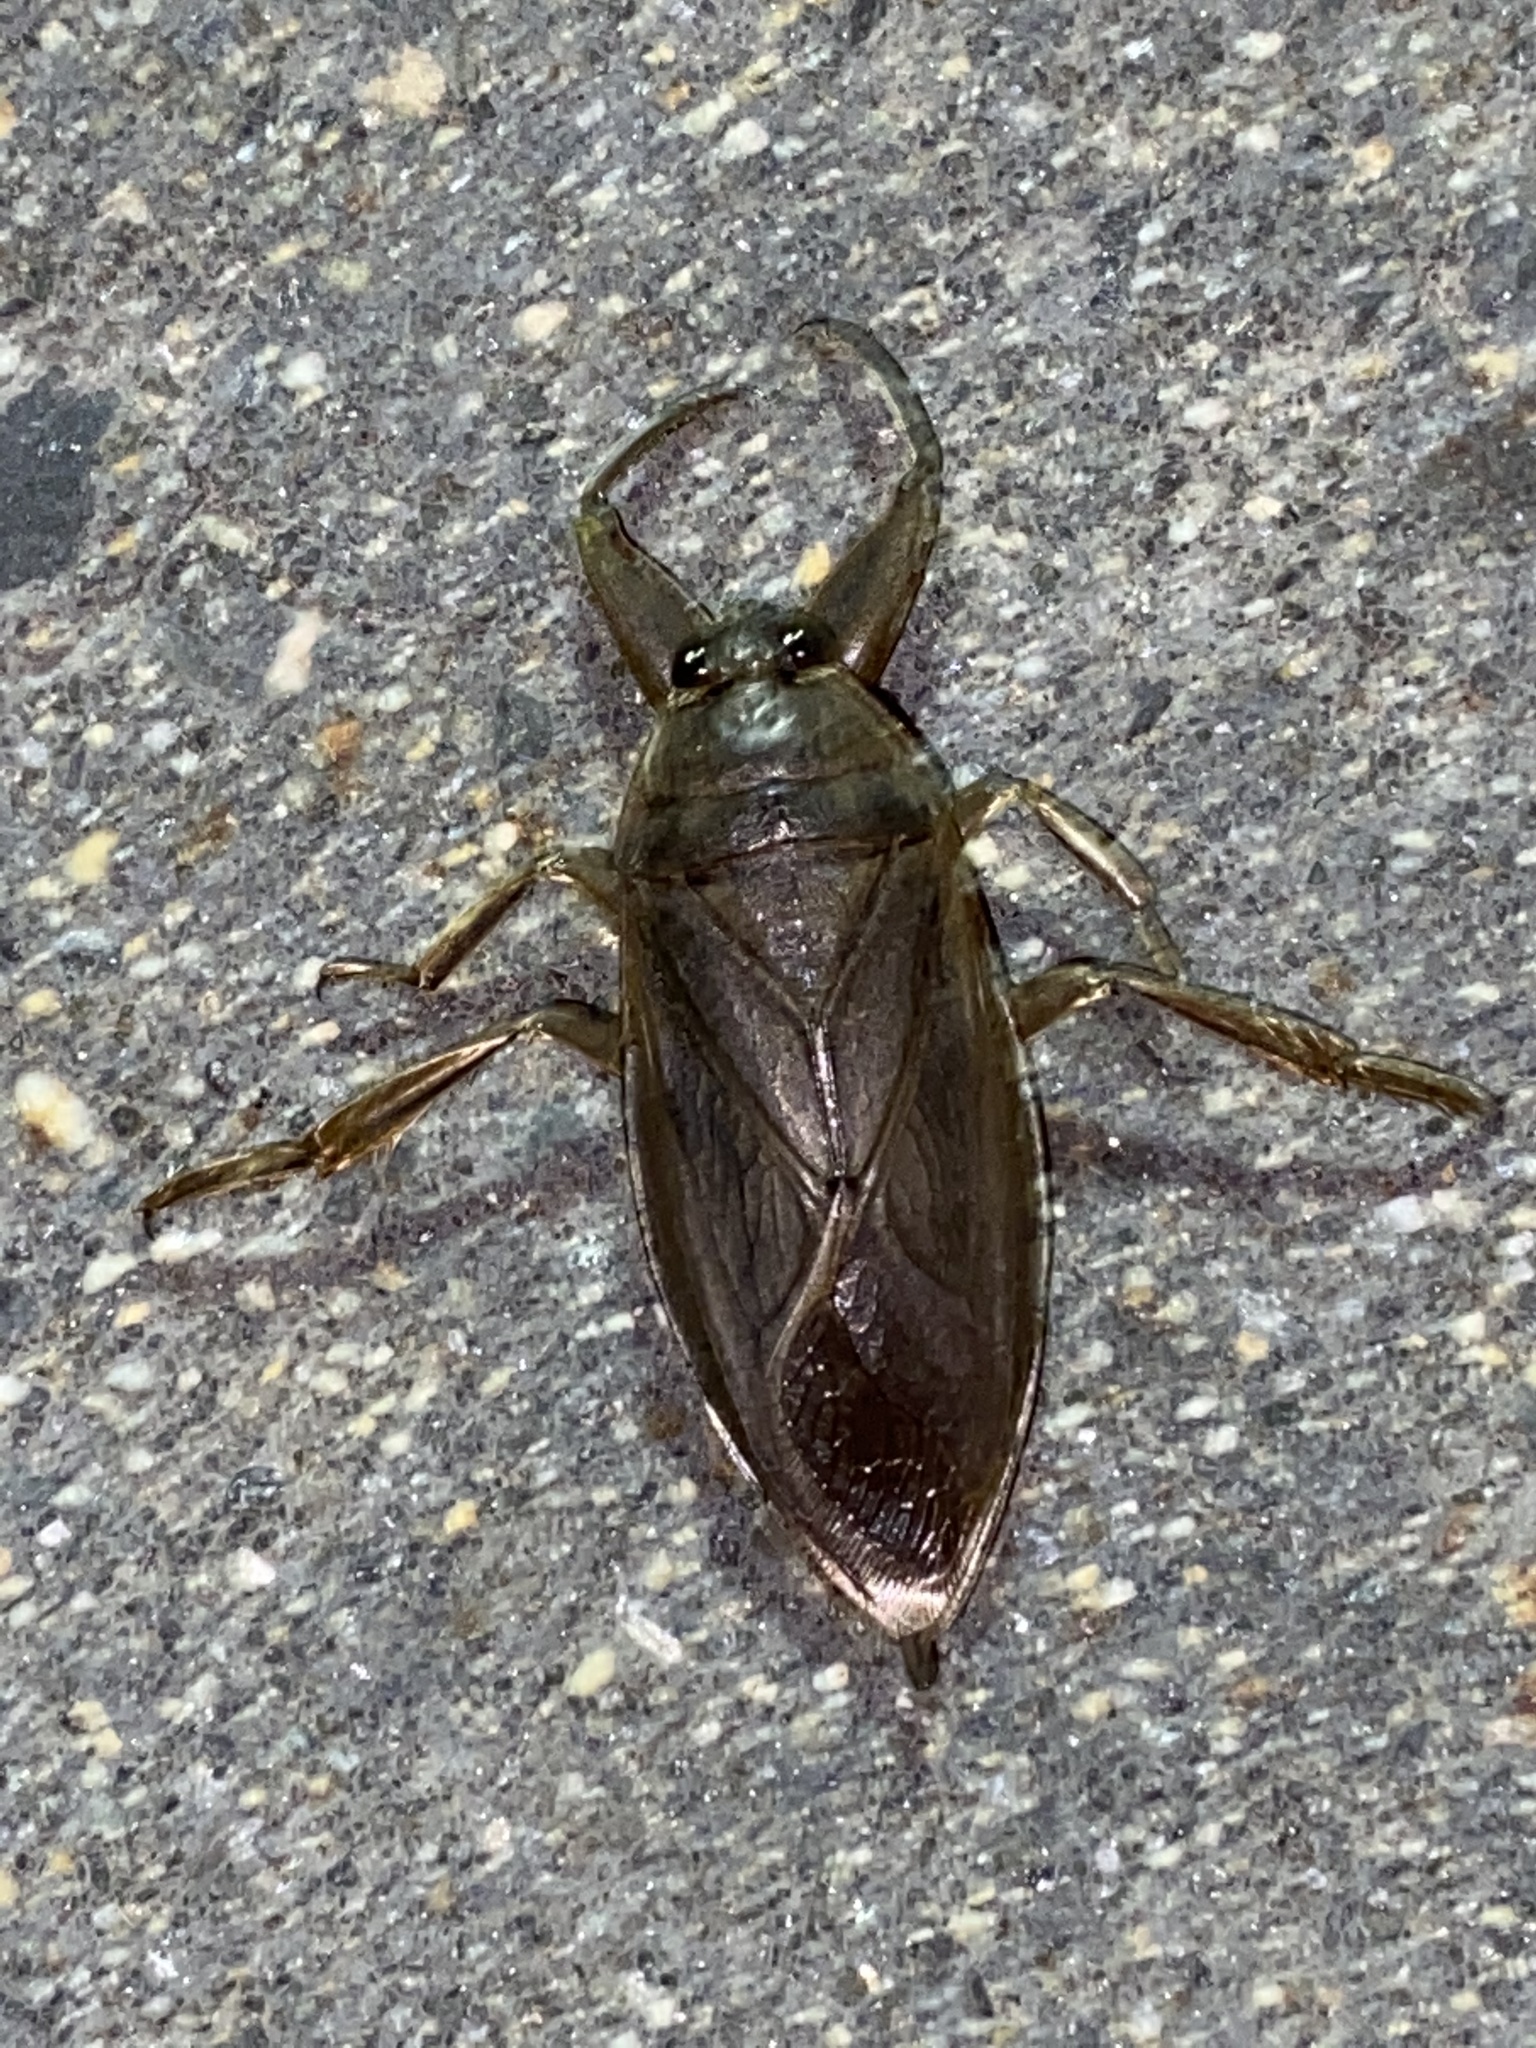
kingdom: Animalia
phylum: Arthropoda
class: Insecta
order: Hemiptera
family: Belostomatidae
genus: Lethocerus
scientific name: Lethocerus americanus
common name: Giant water bug
